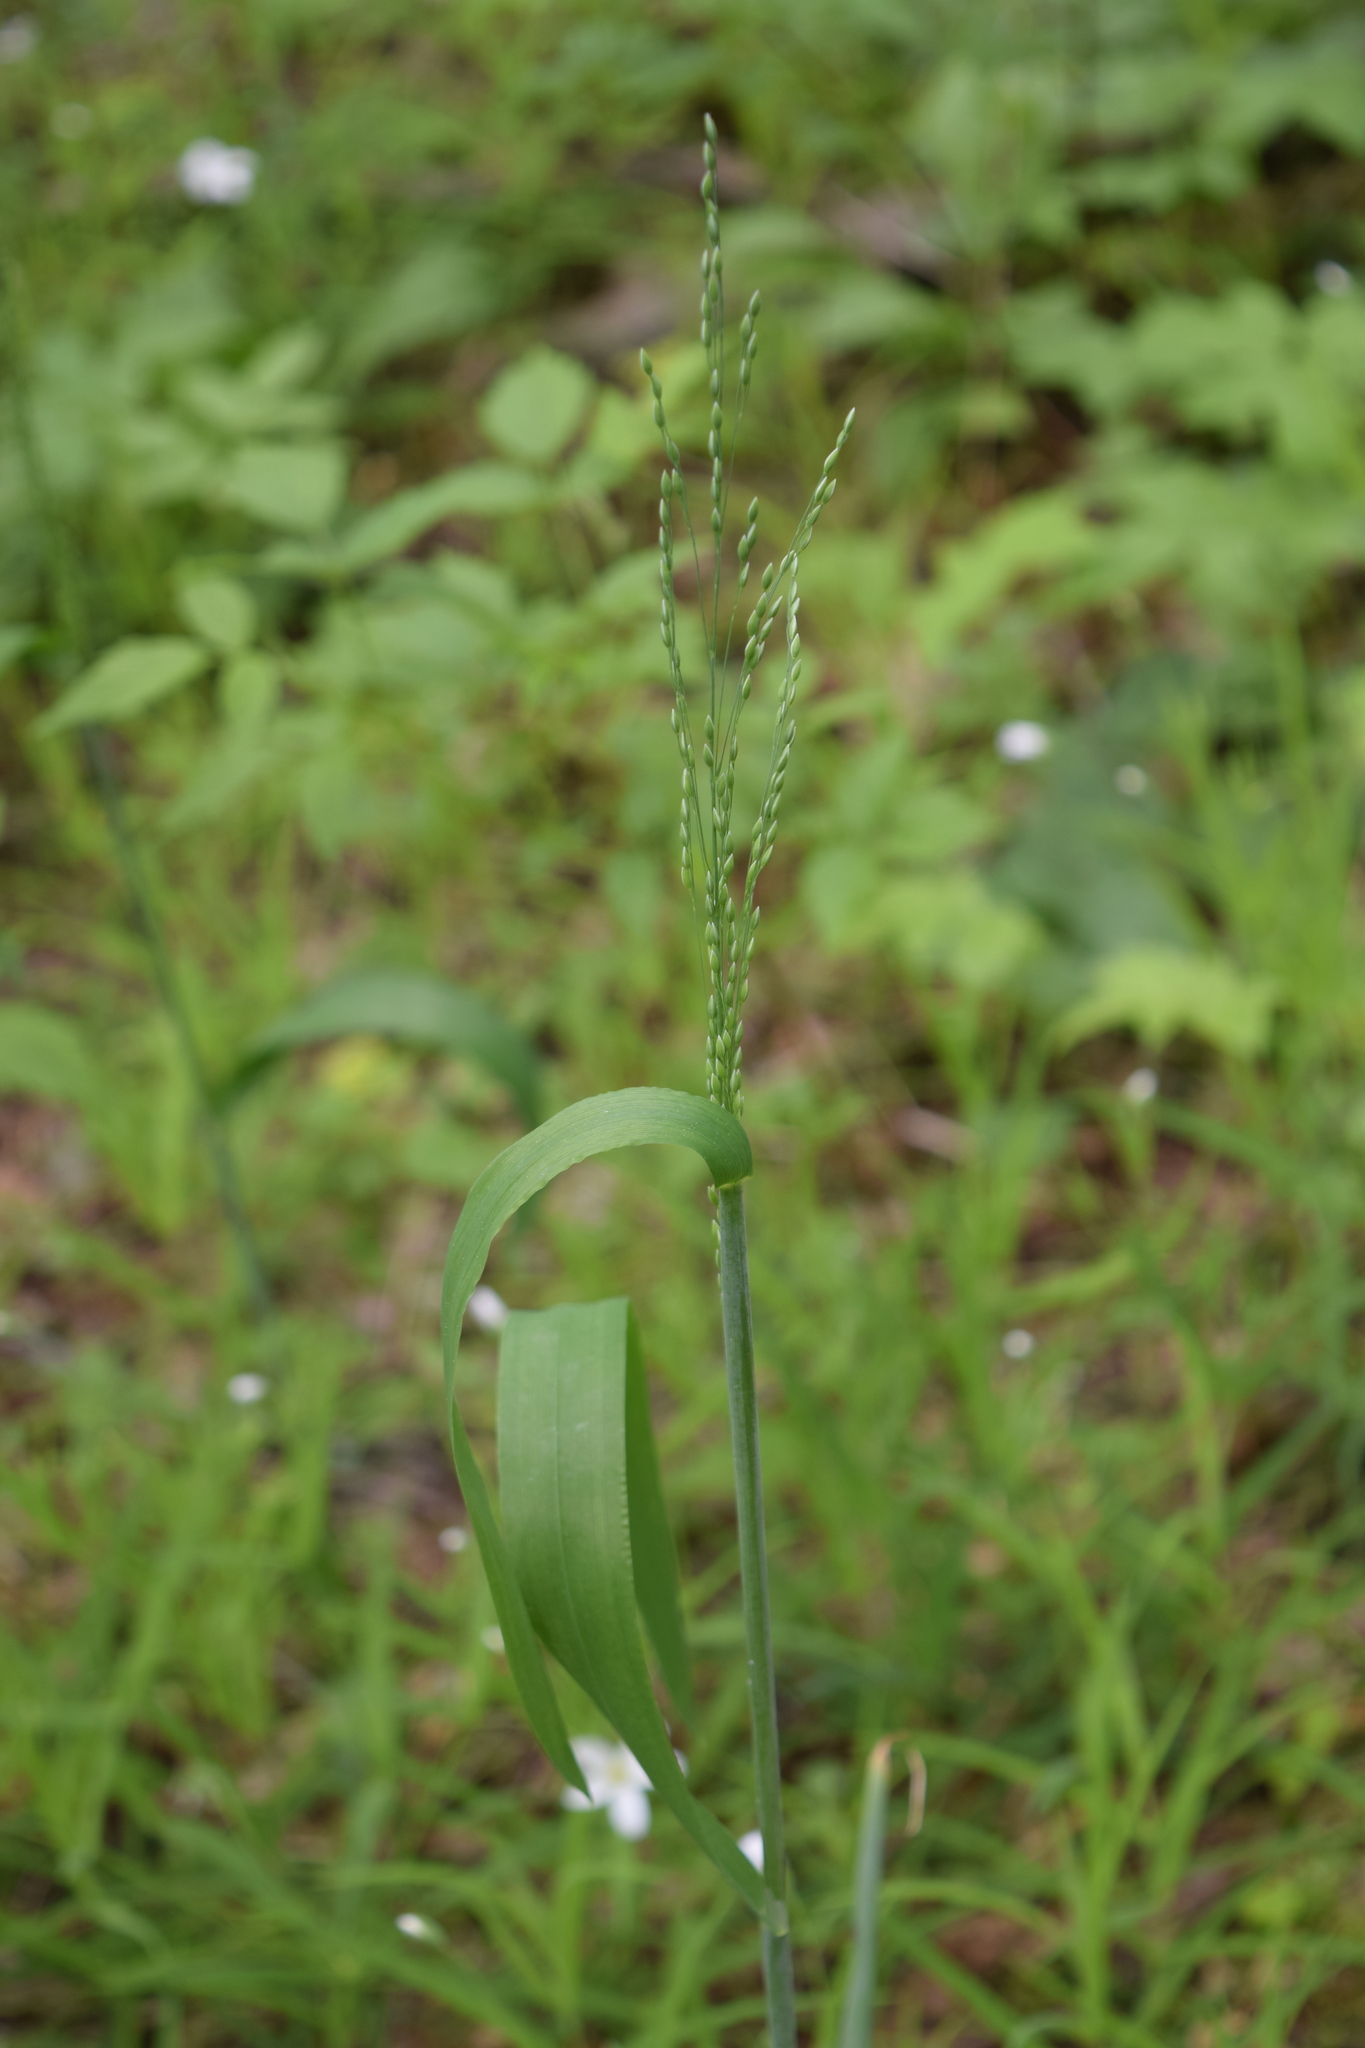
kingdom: Plantae
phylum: Tracheophyta
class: Liliopsida
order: Poales
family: Poaceae
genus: Milium
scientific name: Milium effusum
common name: Wood millet
